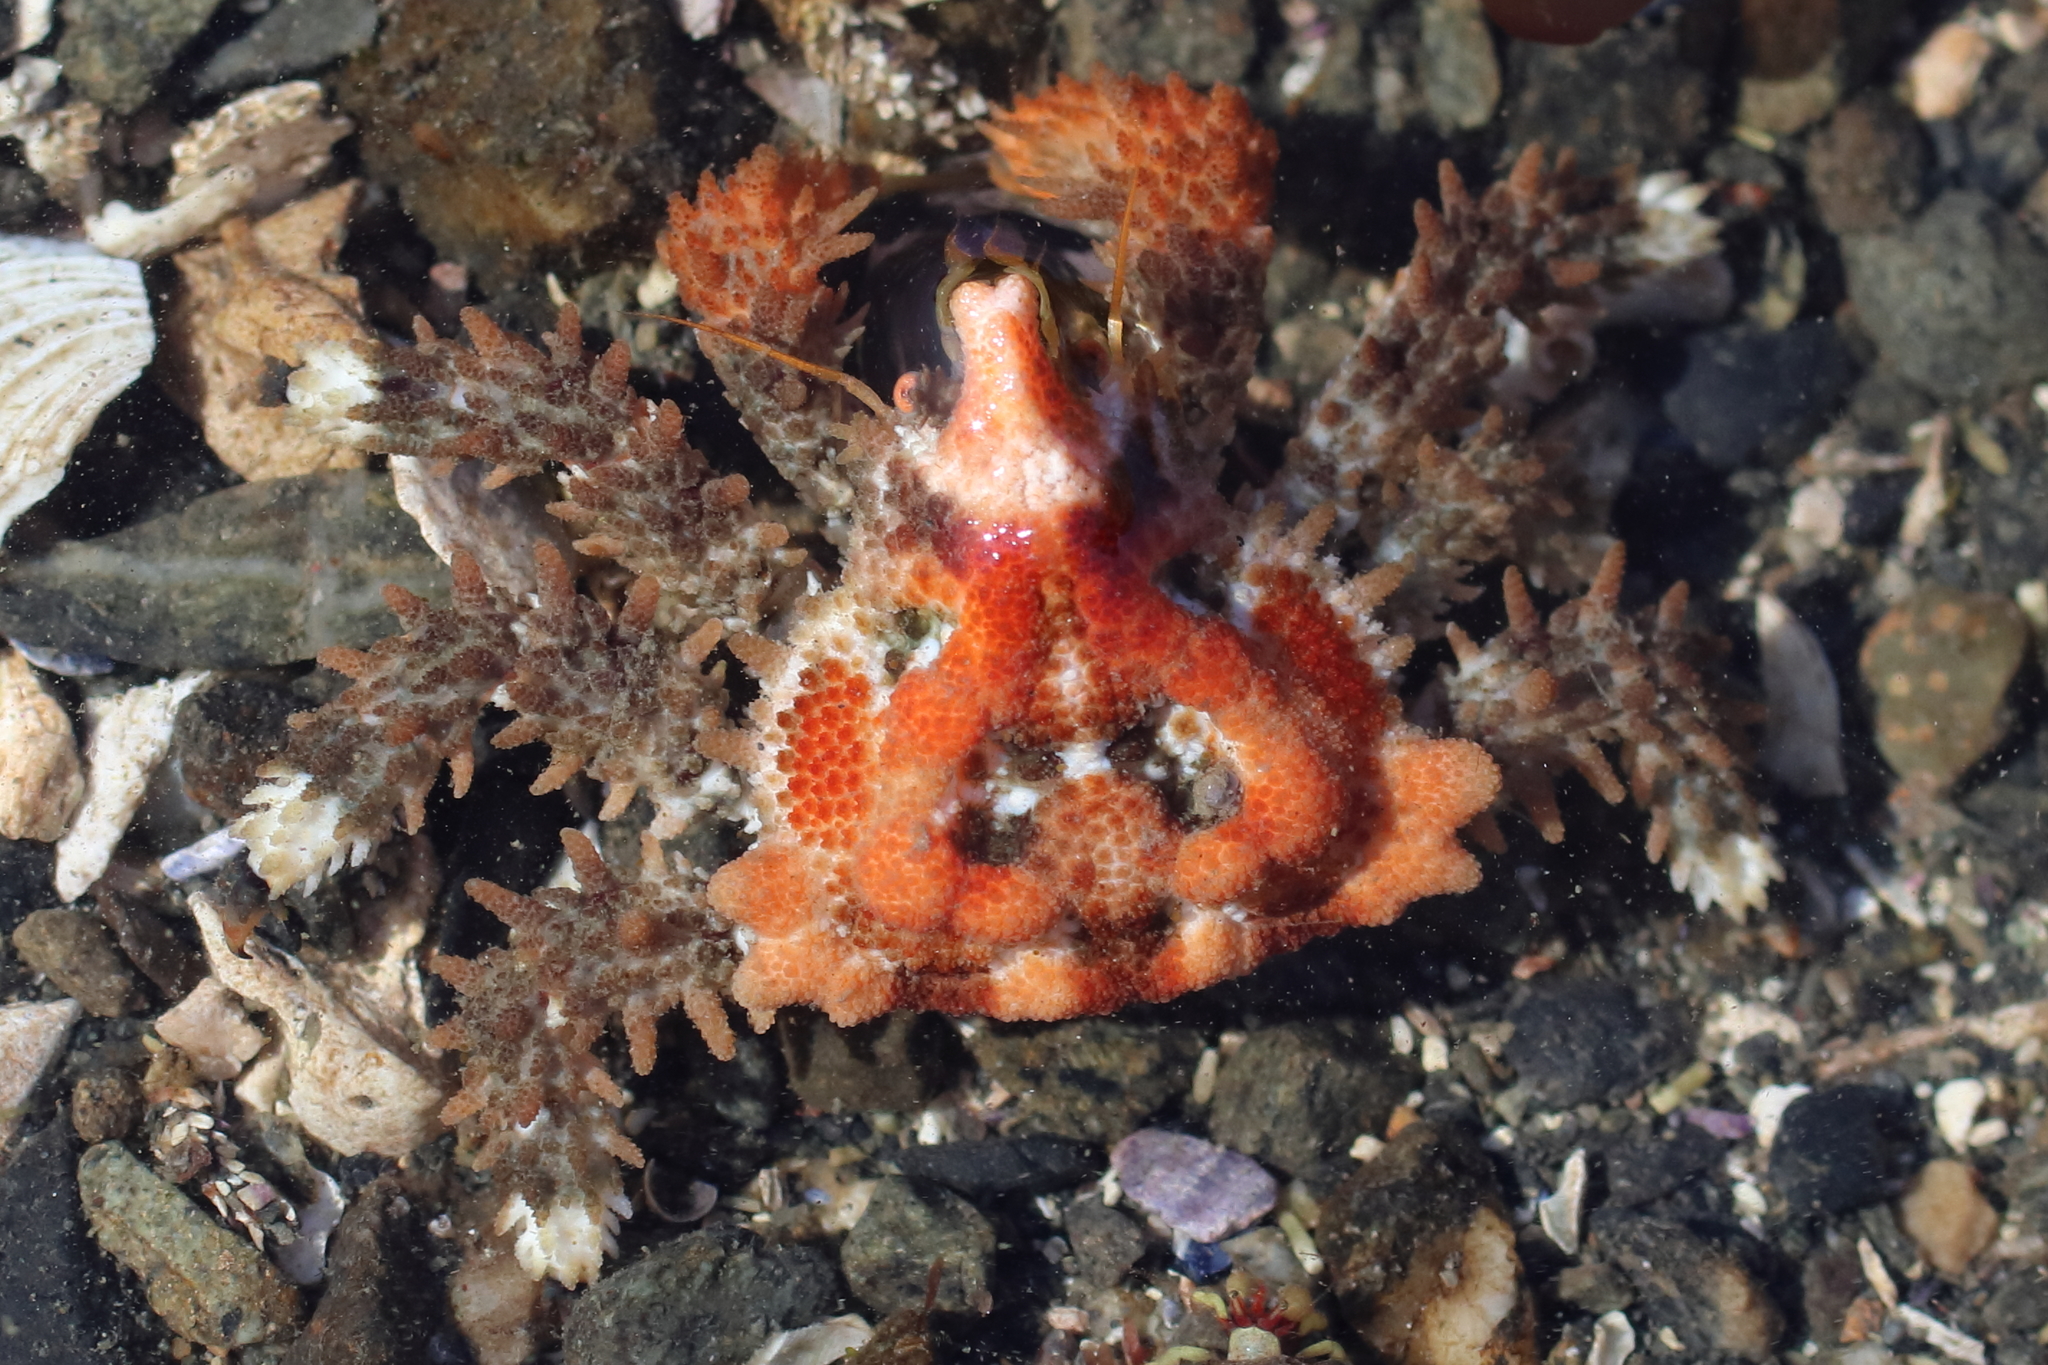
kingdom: Animalia
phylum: Arthropoda
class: Malacostraca
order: Decapoda
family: Lithodidae
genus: Phyllolithodes
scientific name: Phyllolithodes papillosus
